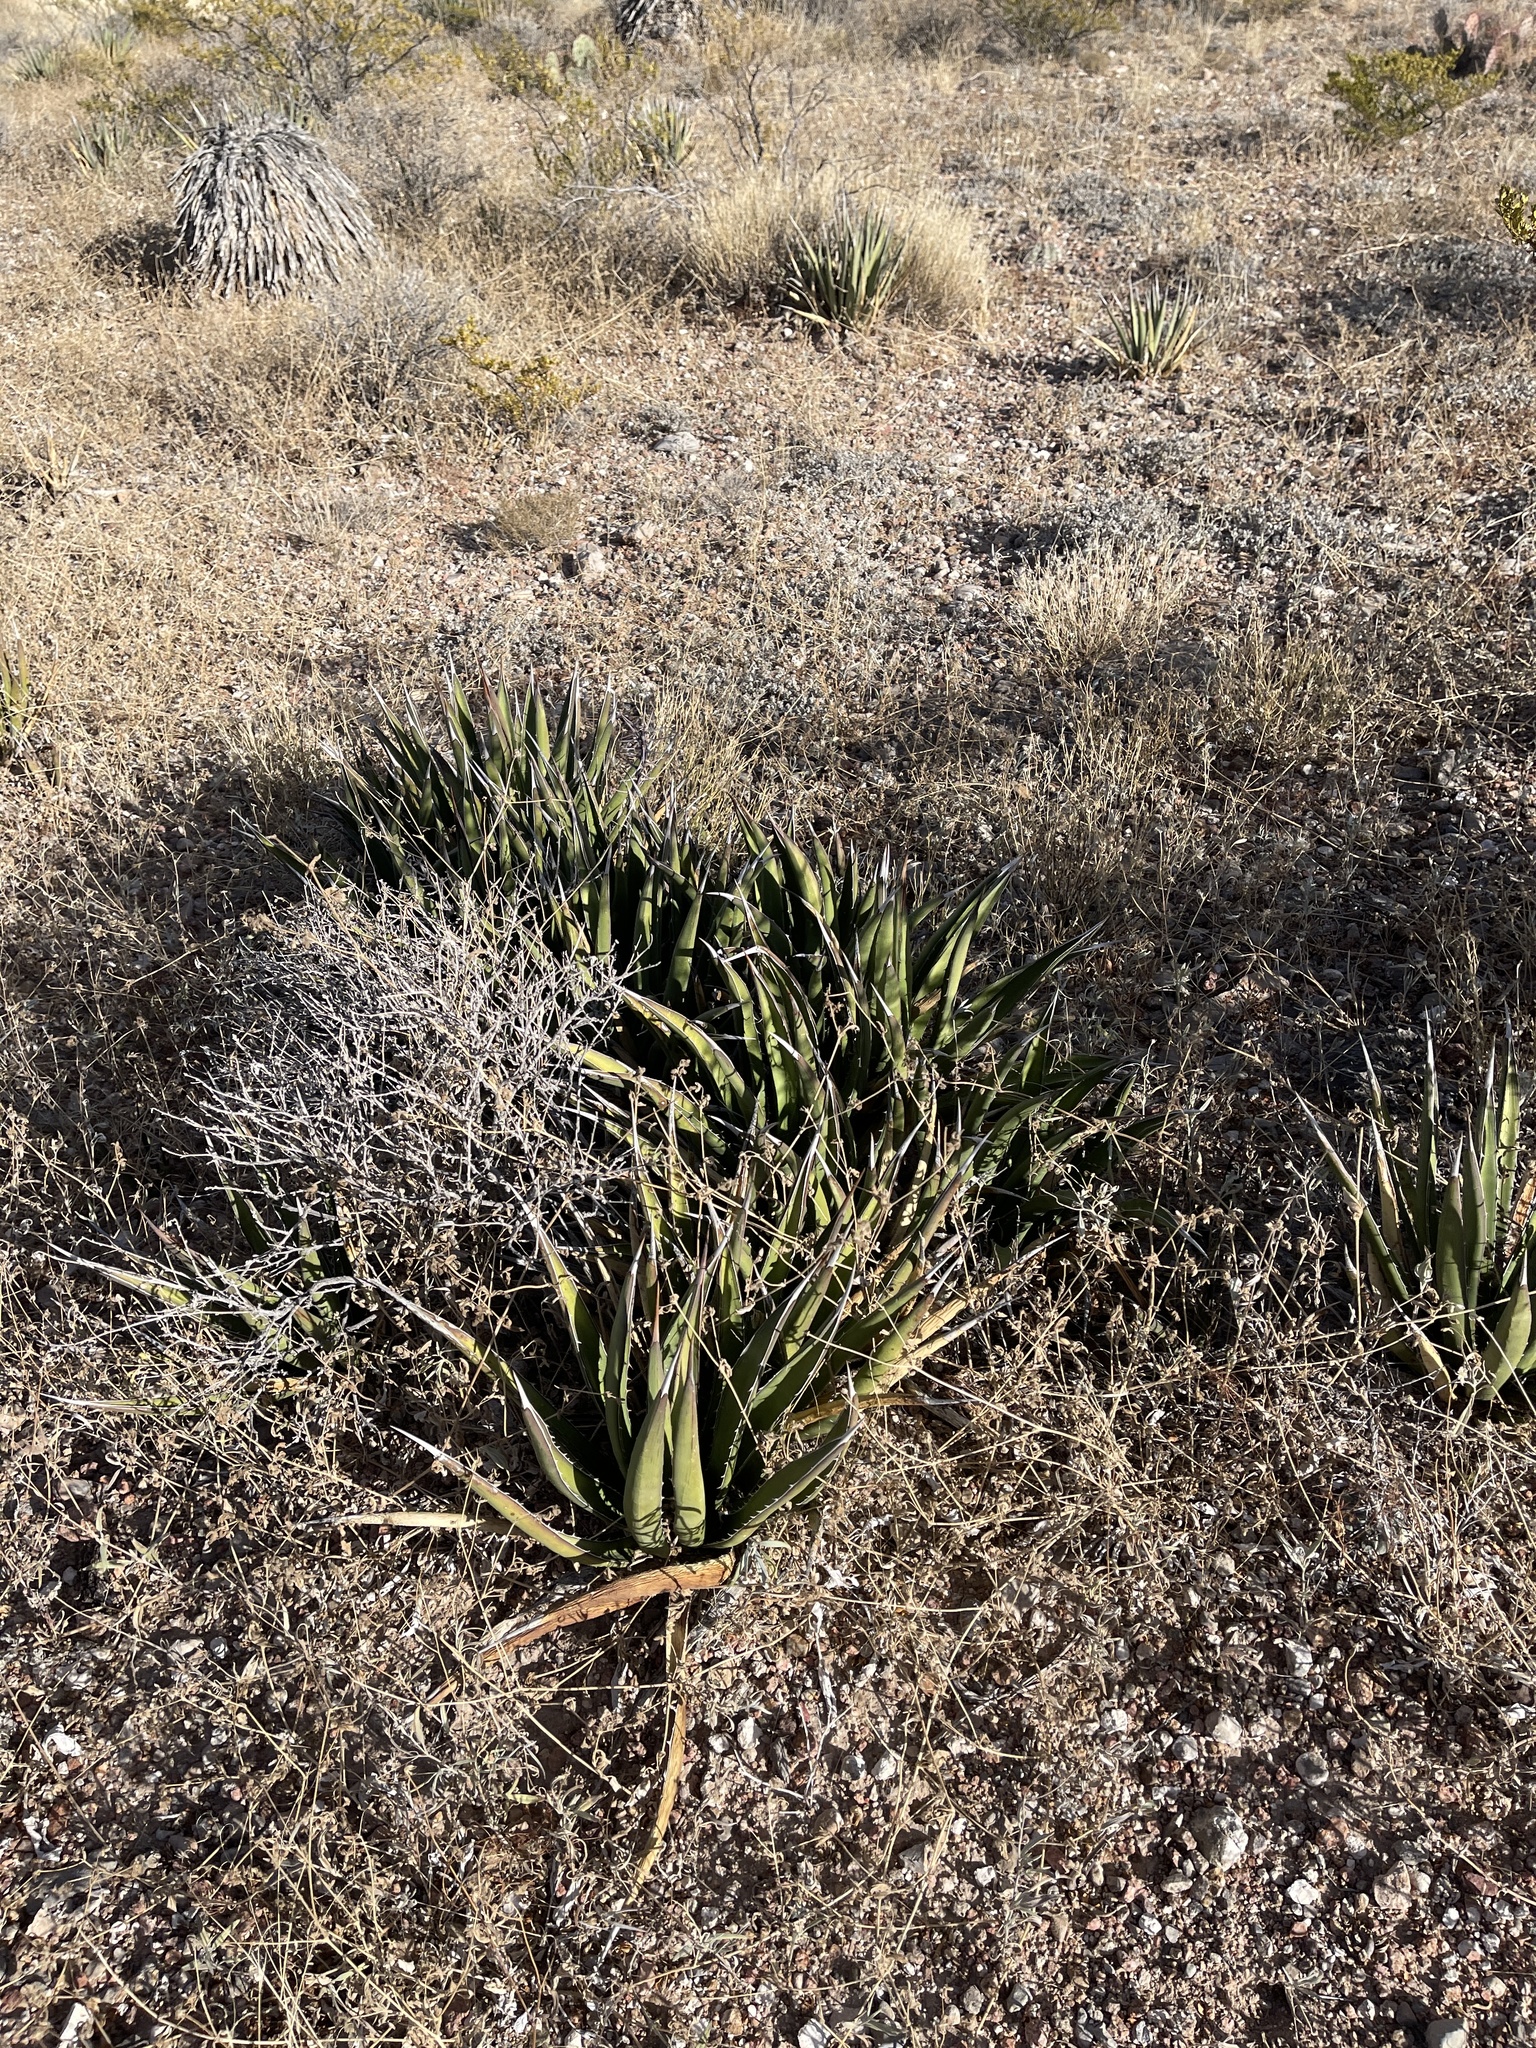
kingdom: Plantae
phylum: Tracheophyta
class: Liliopsida
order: Asparagales
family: Asparagaceae
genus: Agave
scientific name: Agave lechuguilla
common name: Lecheguilla agave
